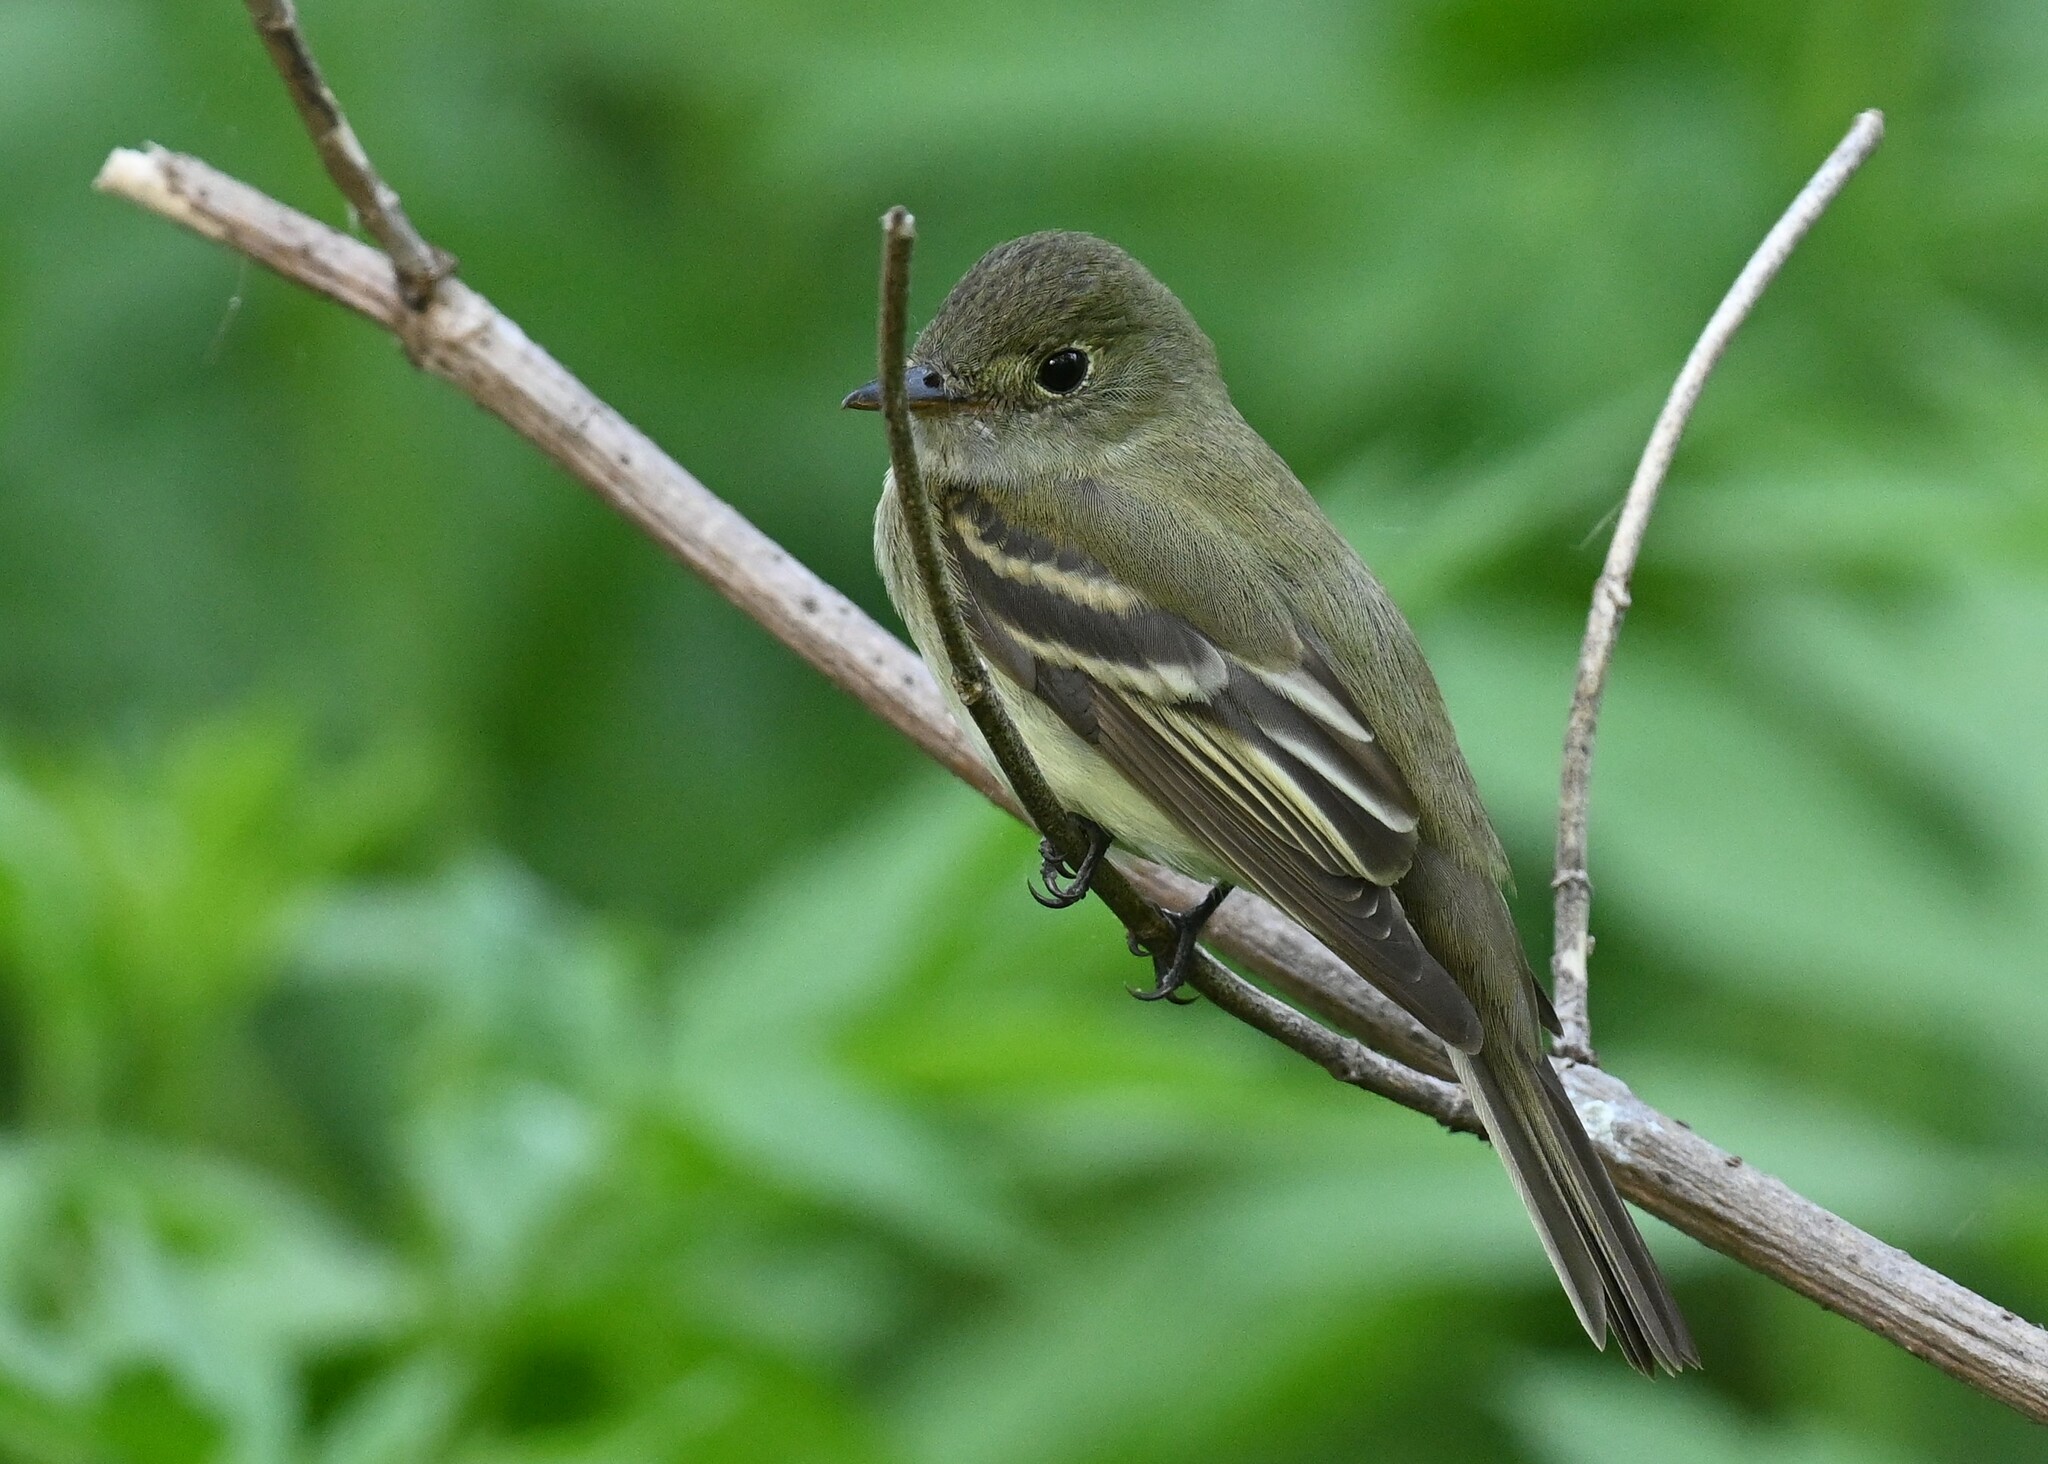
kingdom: Animalia
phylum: Chordata
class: Aves
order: Passeriformes
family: Tyrannidae
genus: Empidonax
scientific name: Empidonax virescens
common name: Acadian flycatcher
